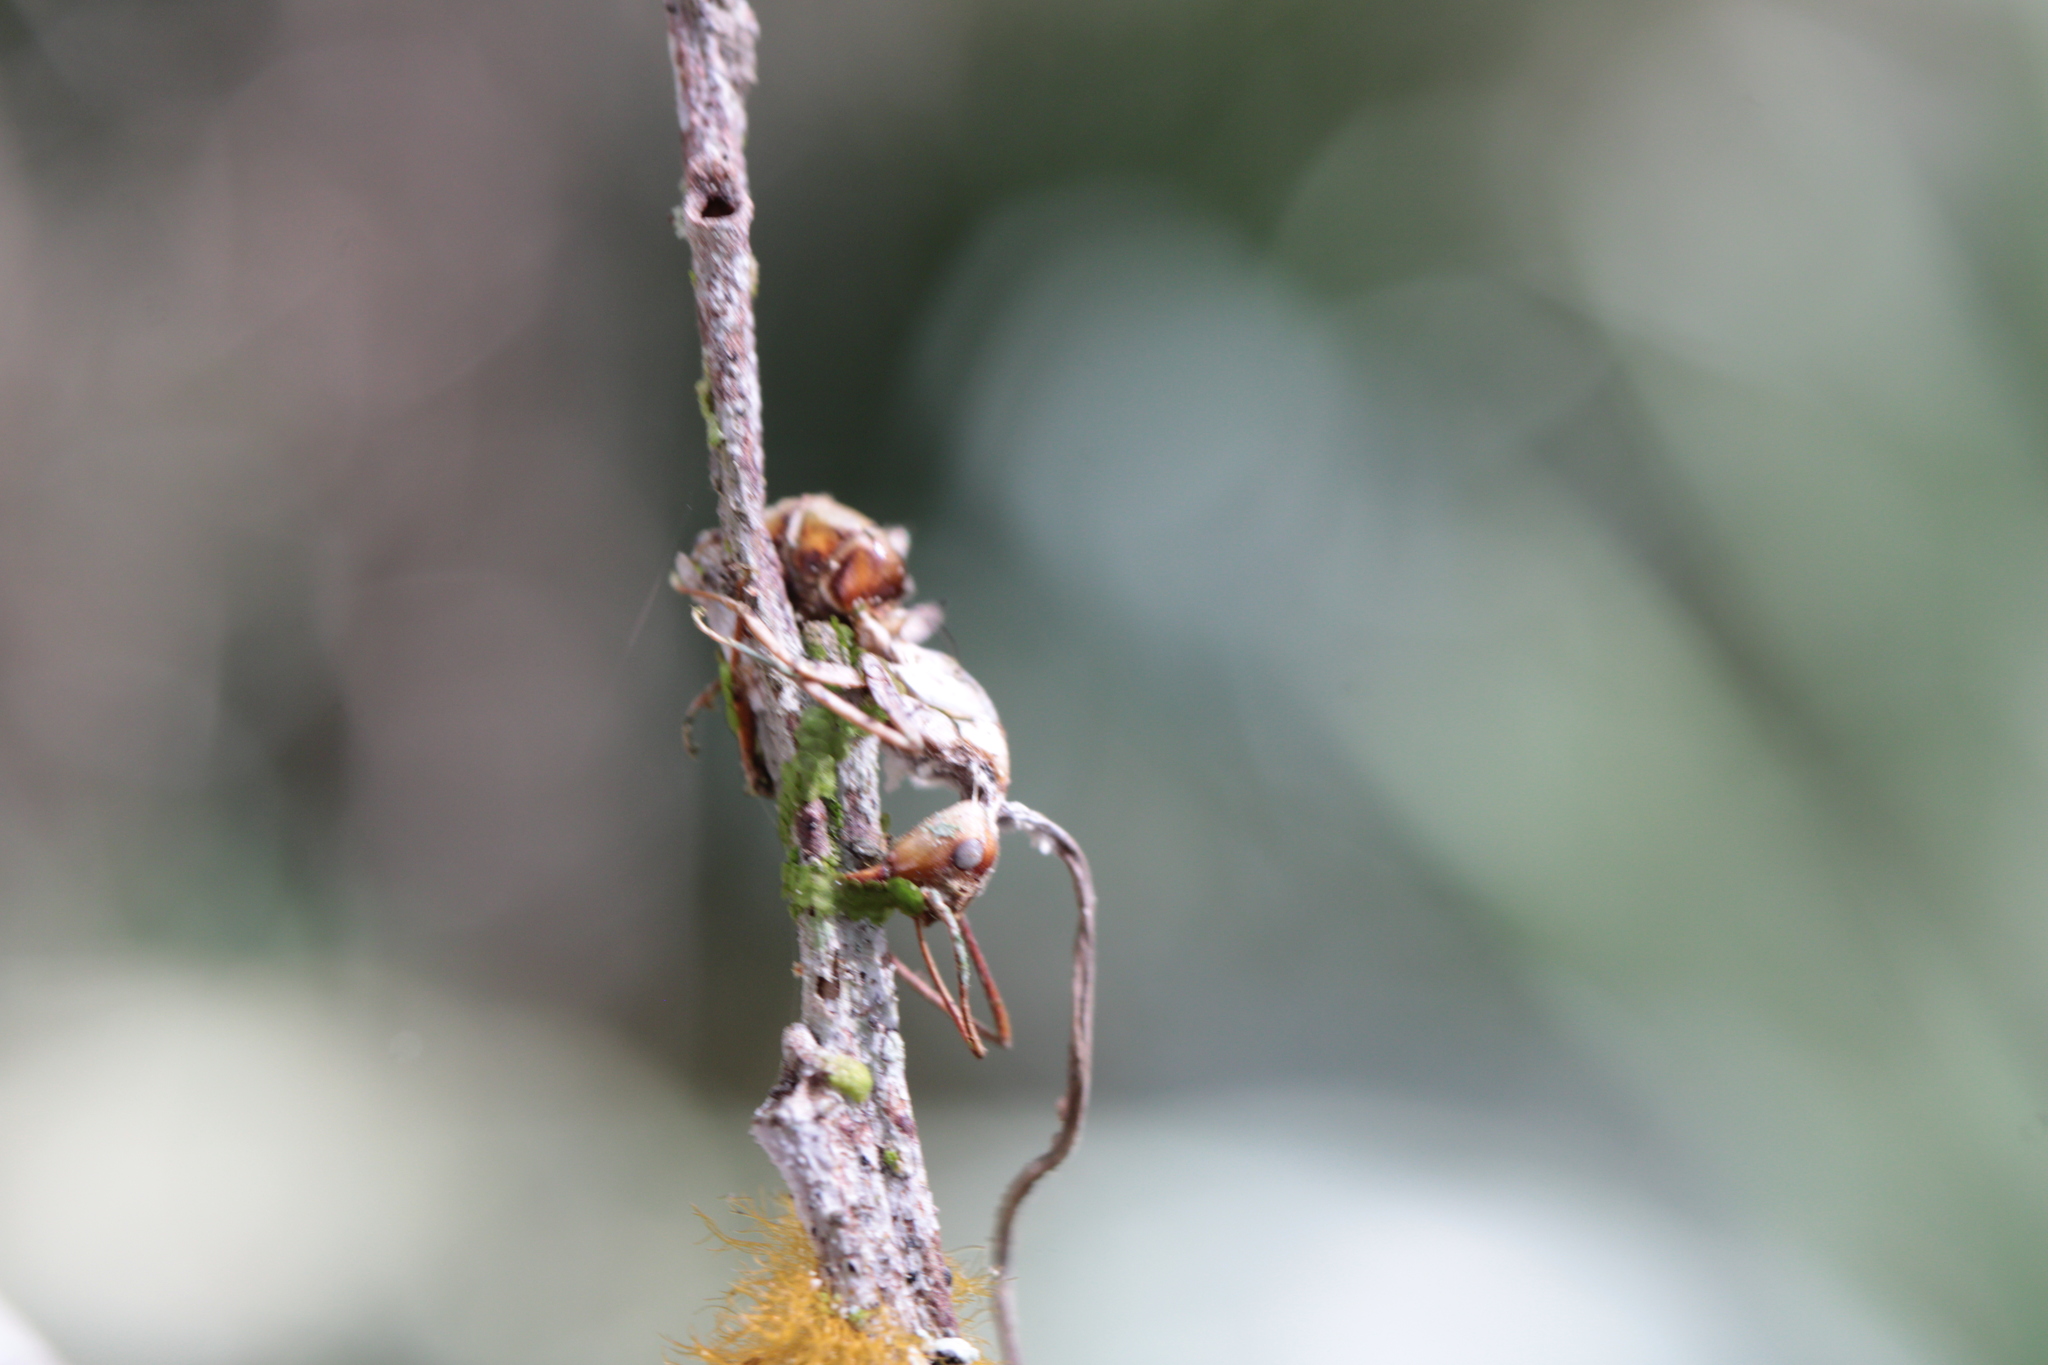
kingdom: Fungi
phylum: Ascomycota
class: Sordariomycetes
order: Hypocreales
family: Ophiocordycipitaceae
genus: Ophiocordyceps
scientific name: Ophiocordyceps camponoti-floridani
